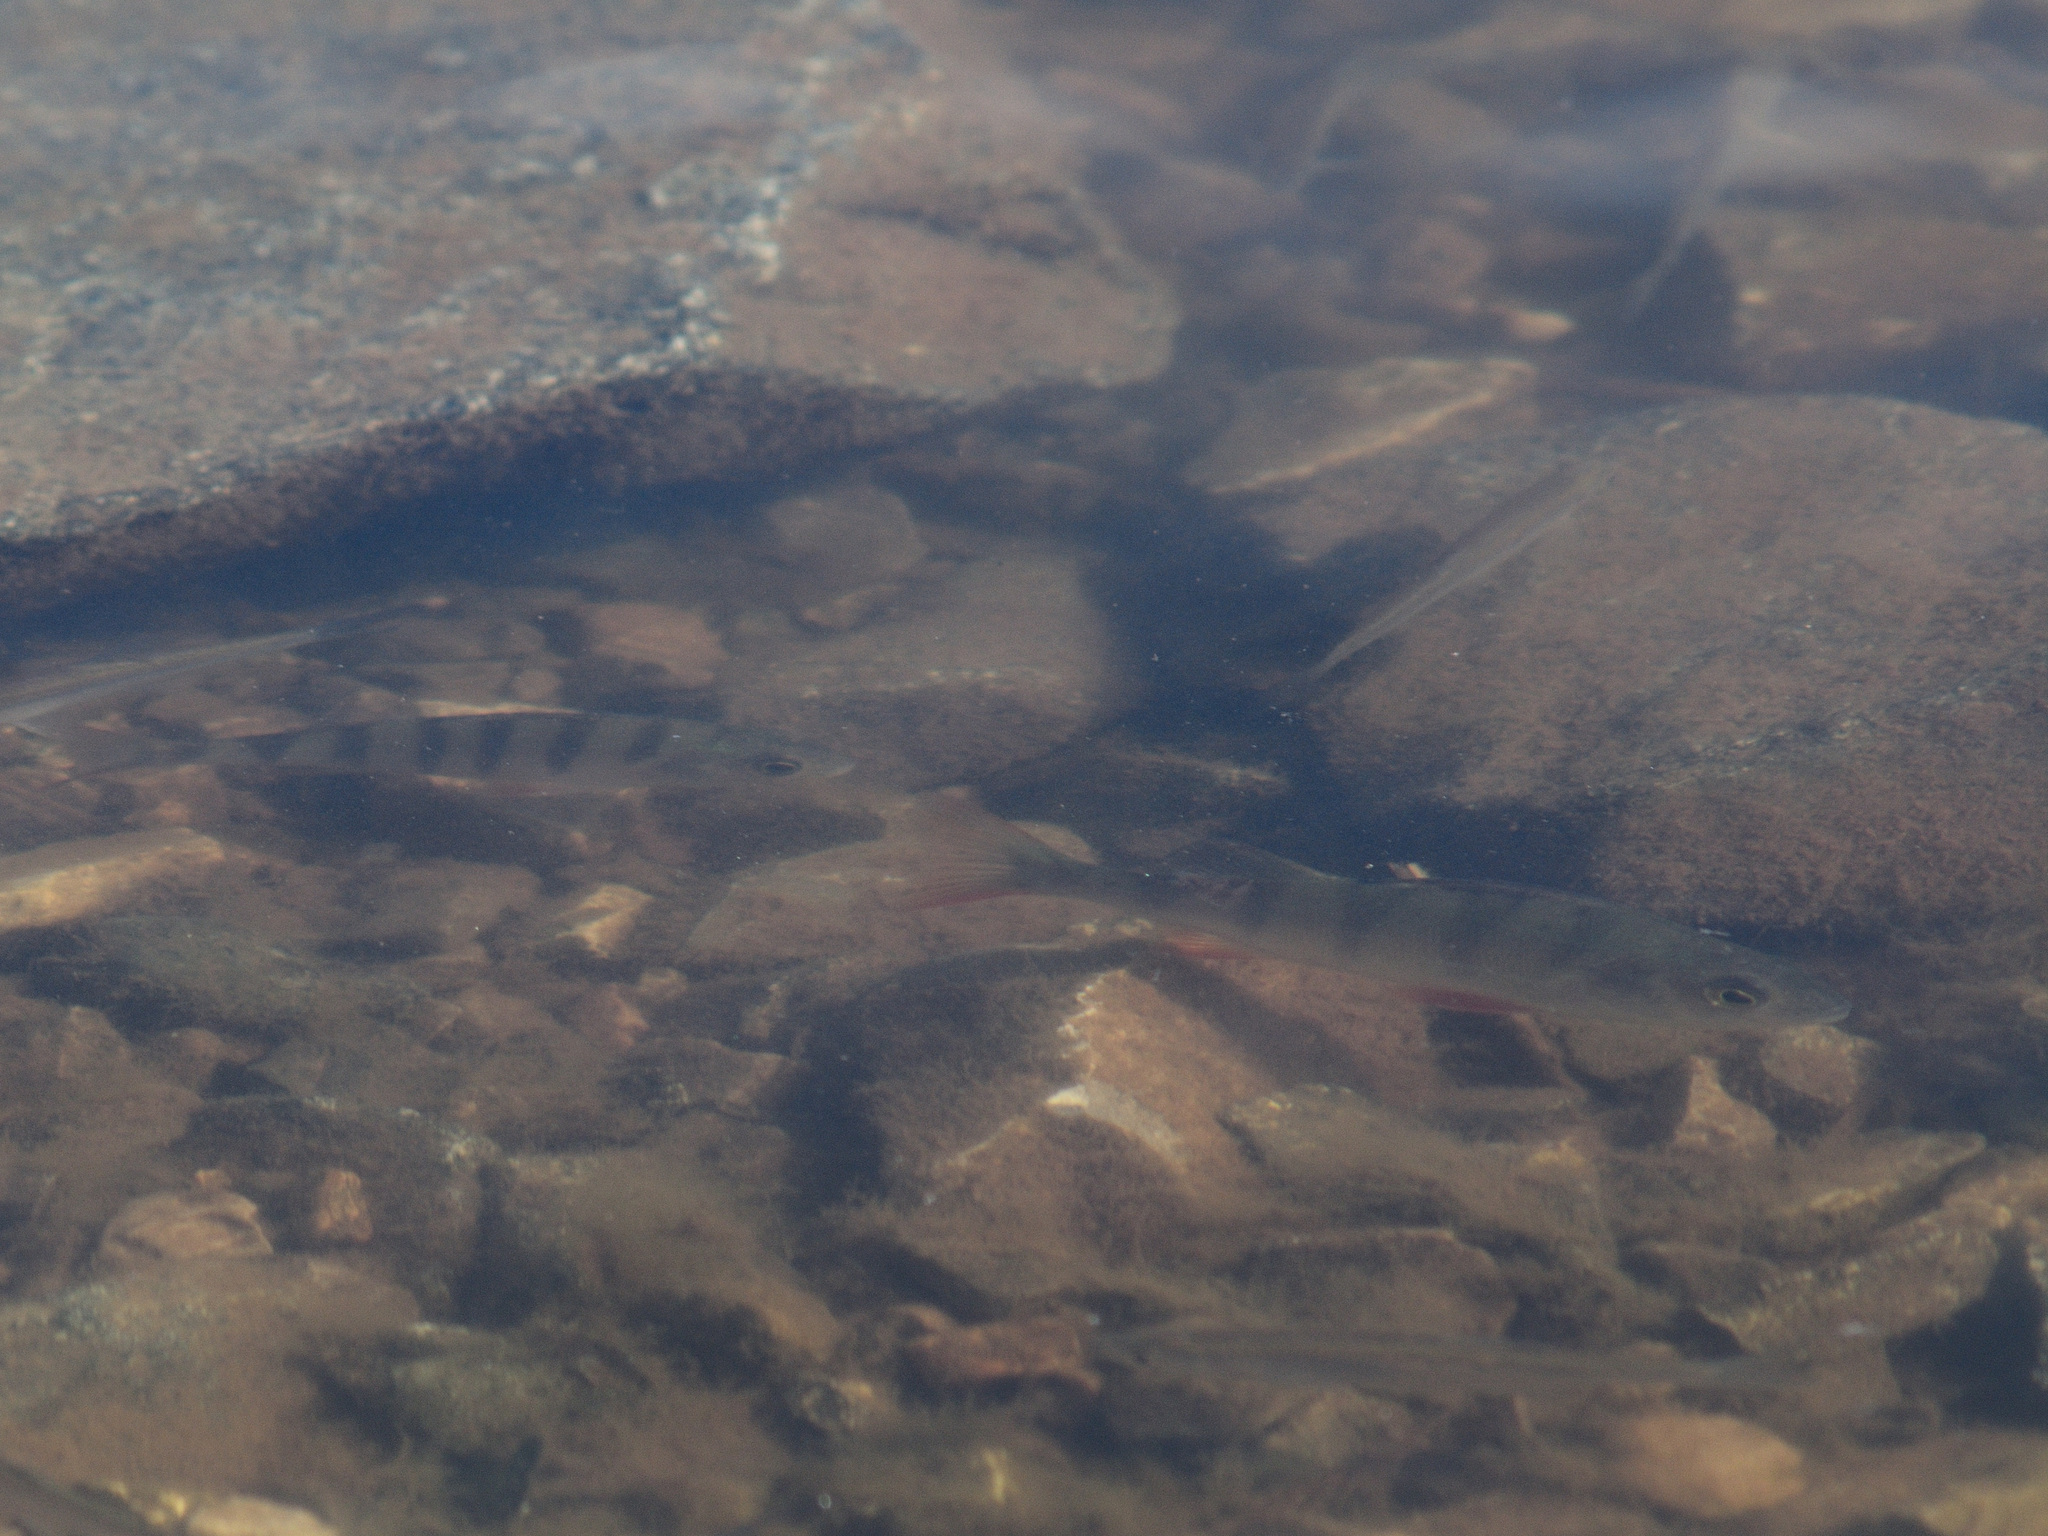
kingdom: Animalia
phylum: Chordata
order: Perciformes
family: Percidae
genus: Perca
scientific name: Perca fluviatilis
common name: Perch
